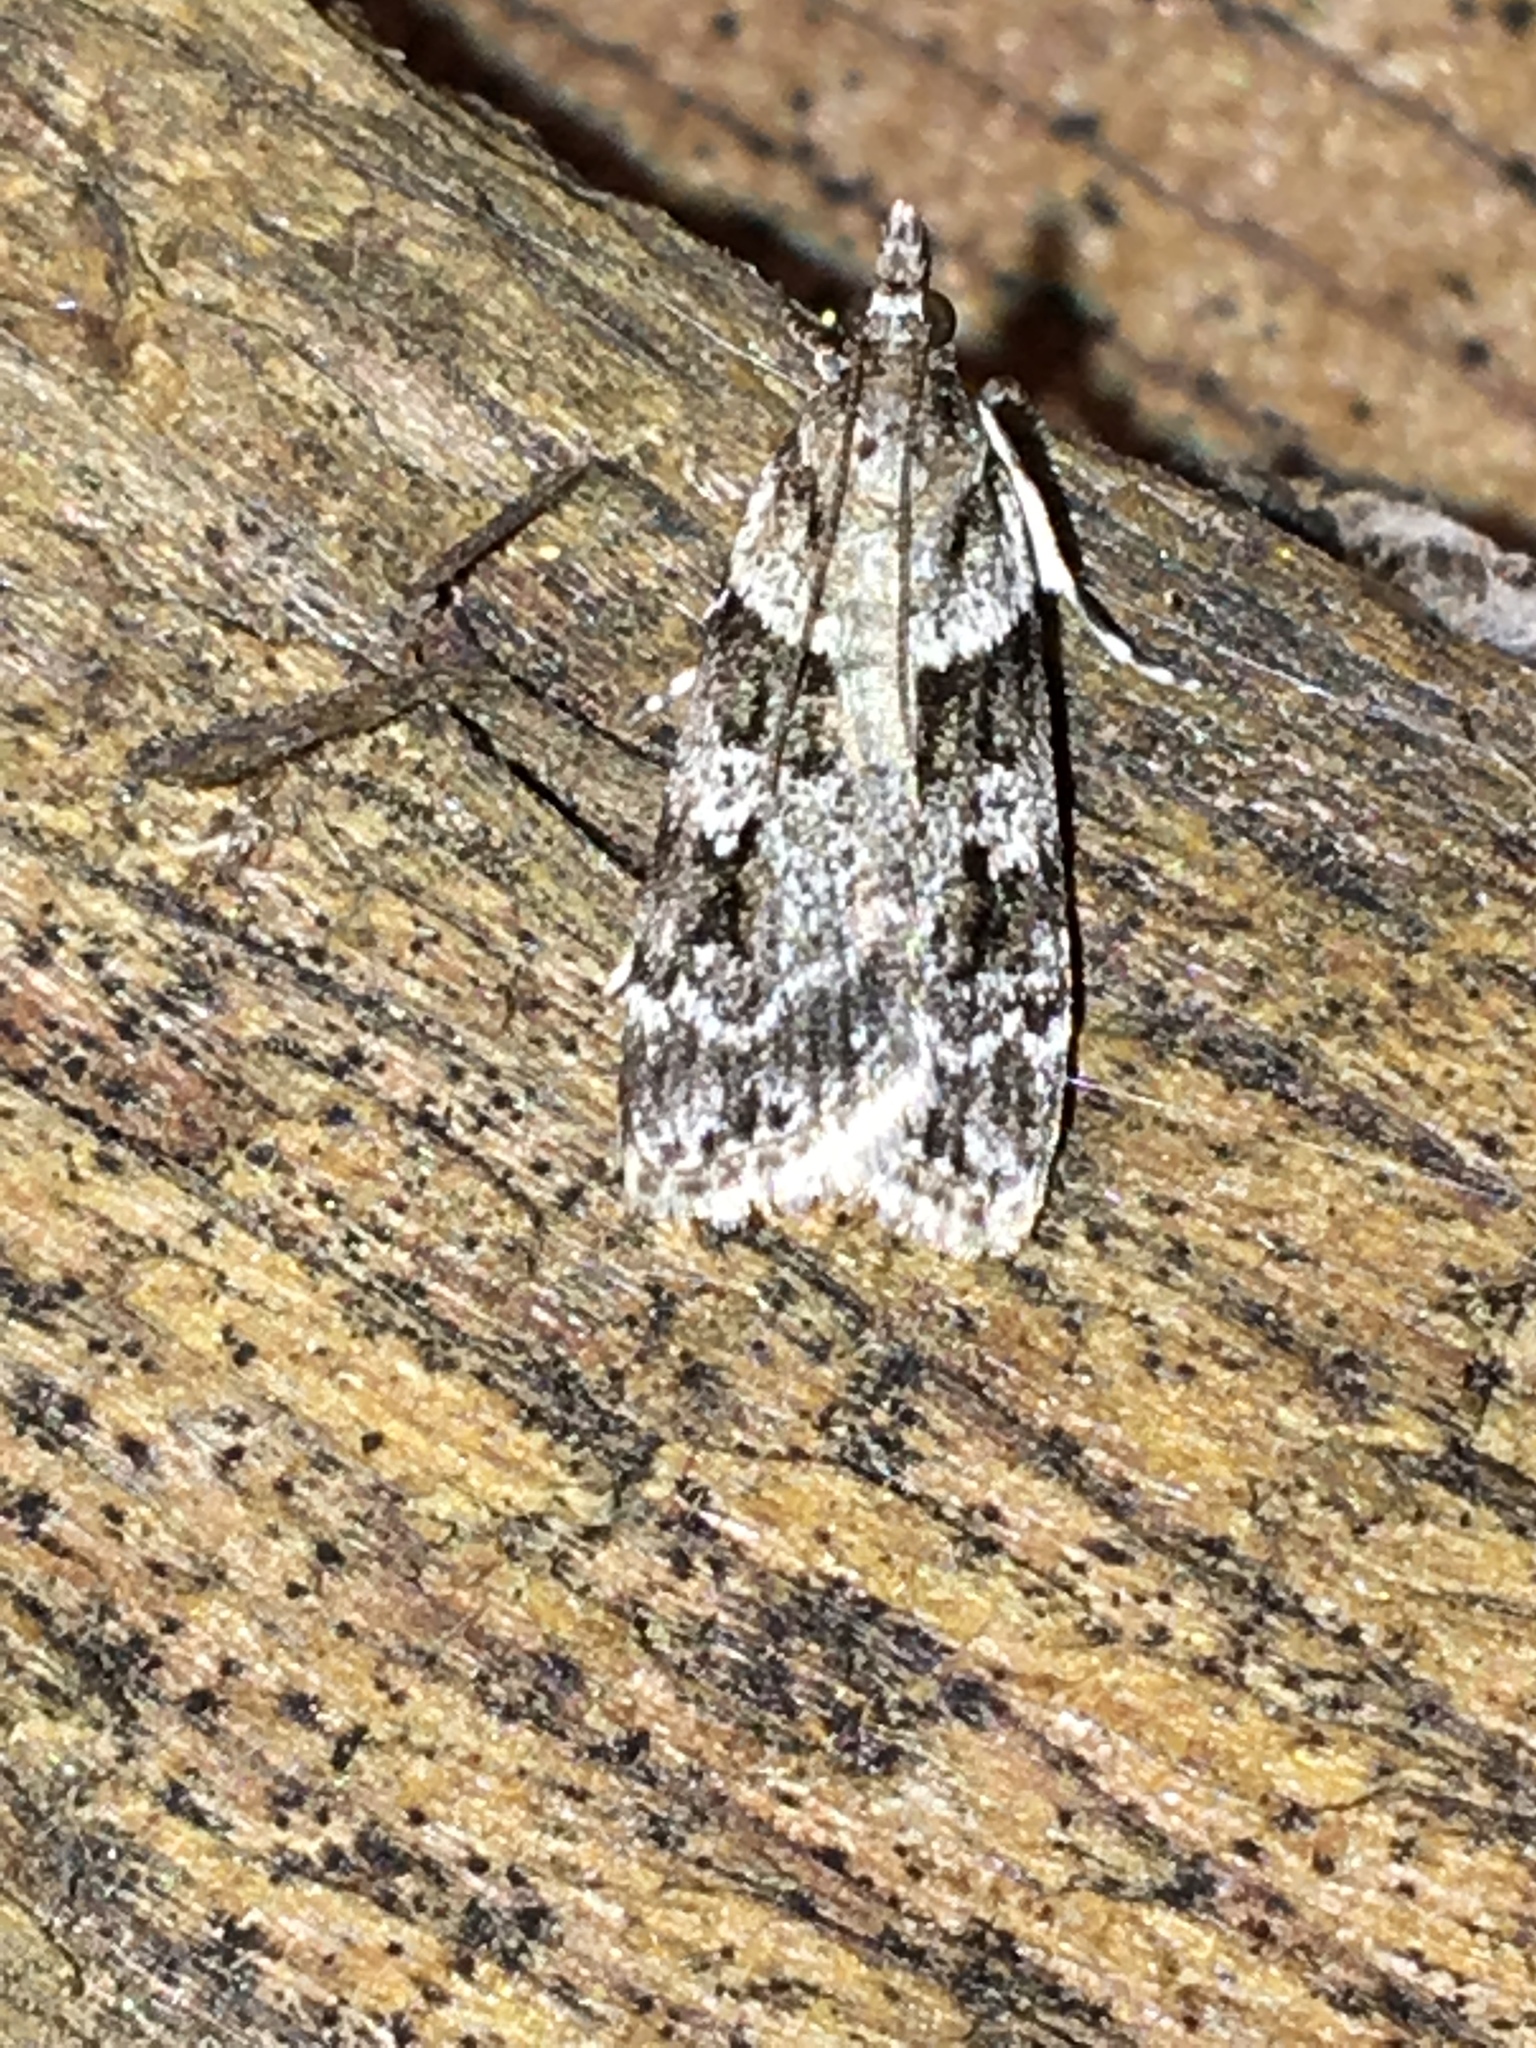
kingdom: Animalia
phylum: Arthropoda
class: Insecta
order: Lepidoptera
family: Crambidae
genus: Scoparia
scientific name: Scoparia biplagialis
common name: Double-striped scoparia moth
